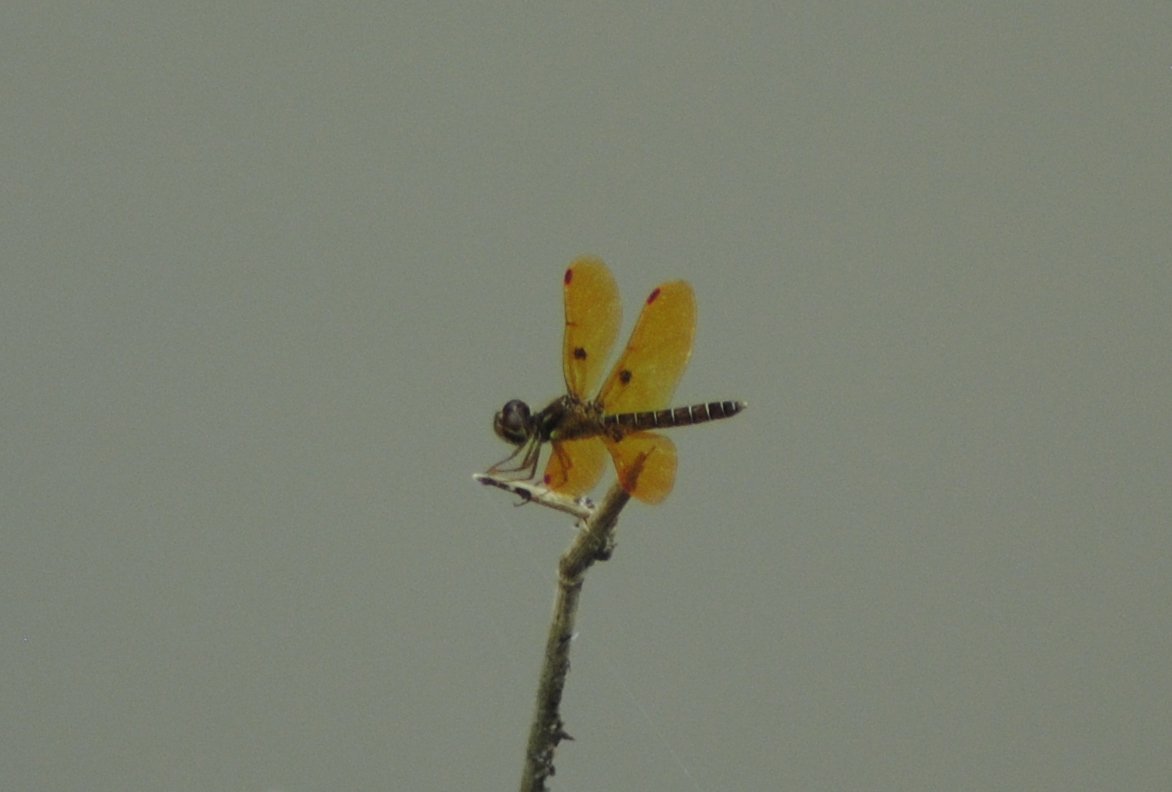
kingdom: Animalia
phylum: Arthropoda
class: Insecta
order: Odonata
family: Libellulidae
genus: Perithemis
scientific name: Perithemis tenera
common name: Eastern amberwing
